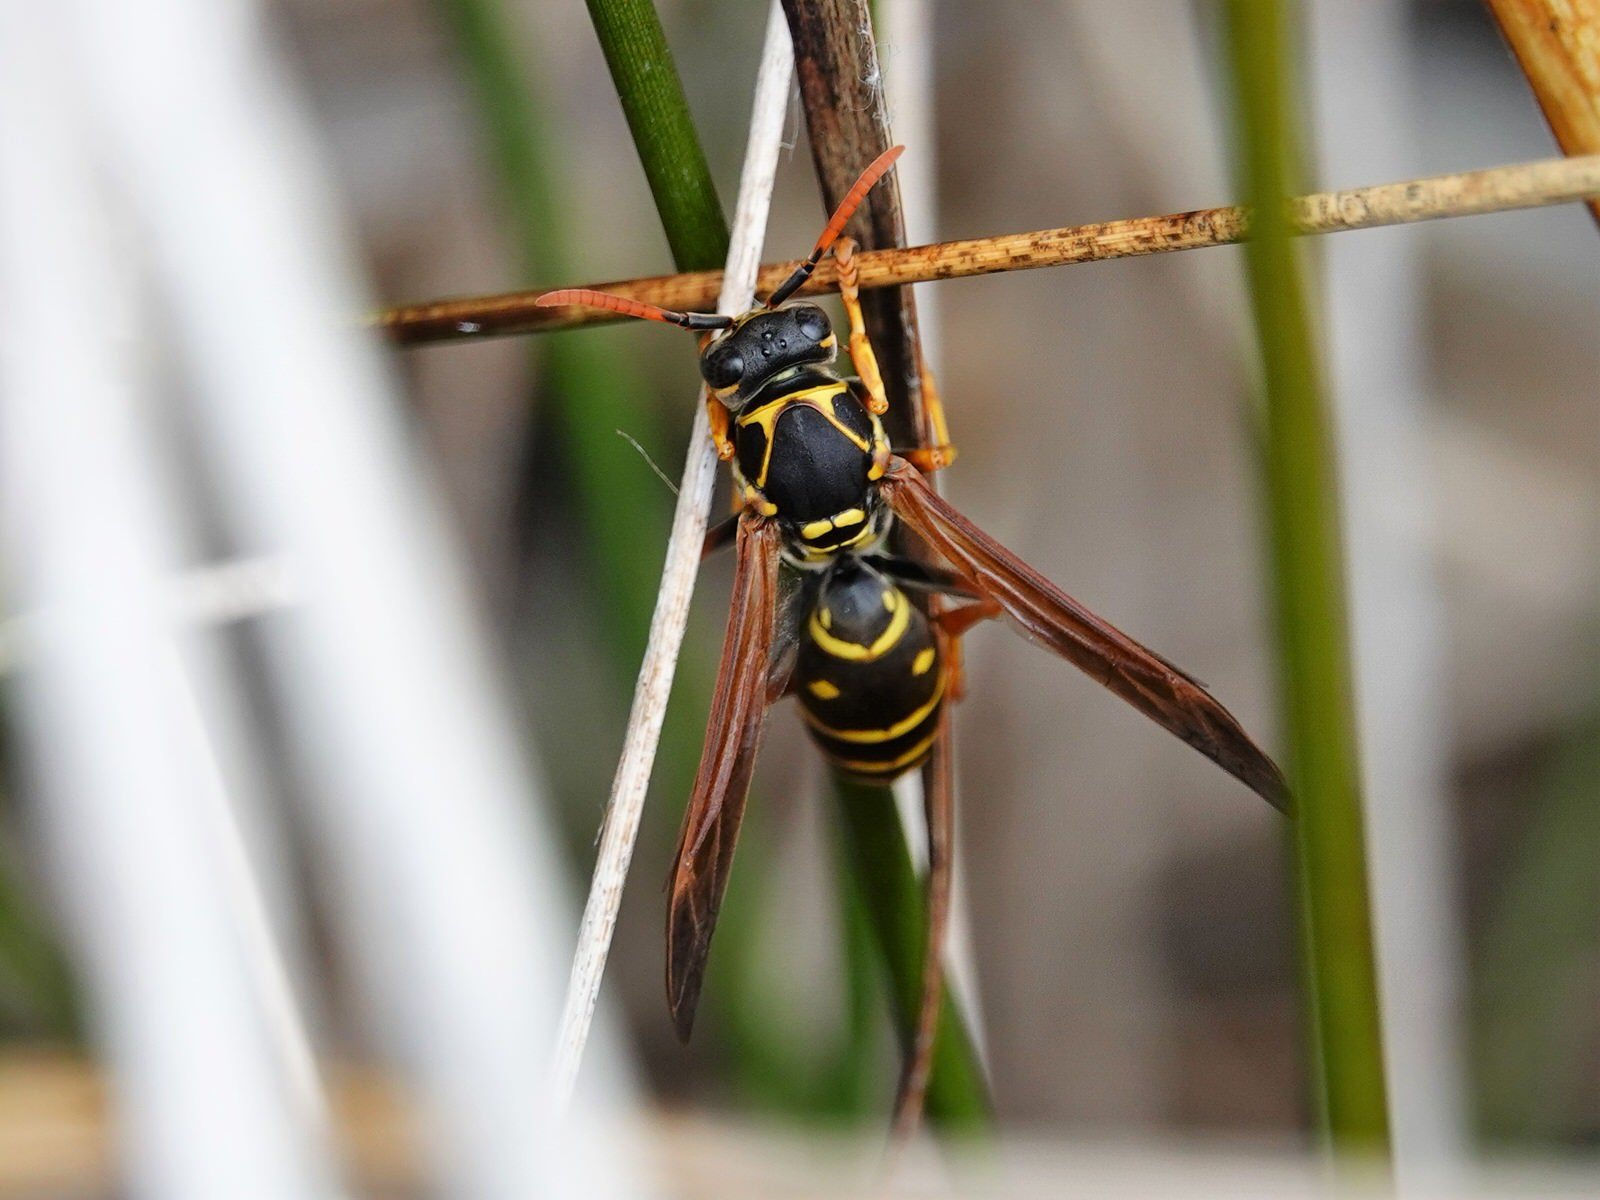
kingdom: Animalia
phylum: Arthropoda
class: Insecta
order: Hymenoptera
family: Eumenidae
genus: Polistes
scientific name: Polistes chinensis
